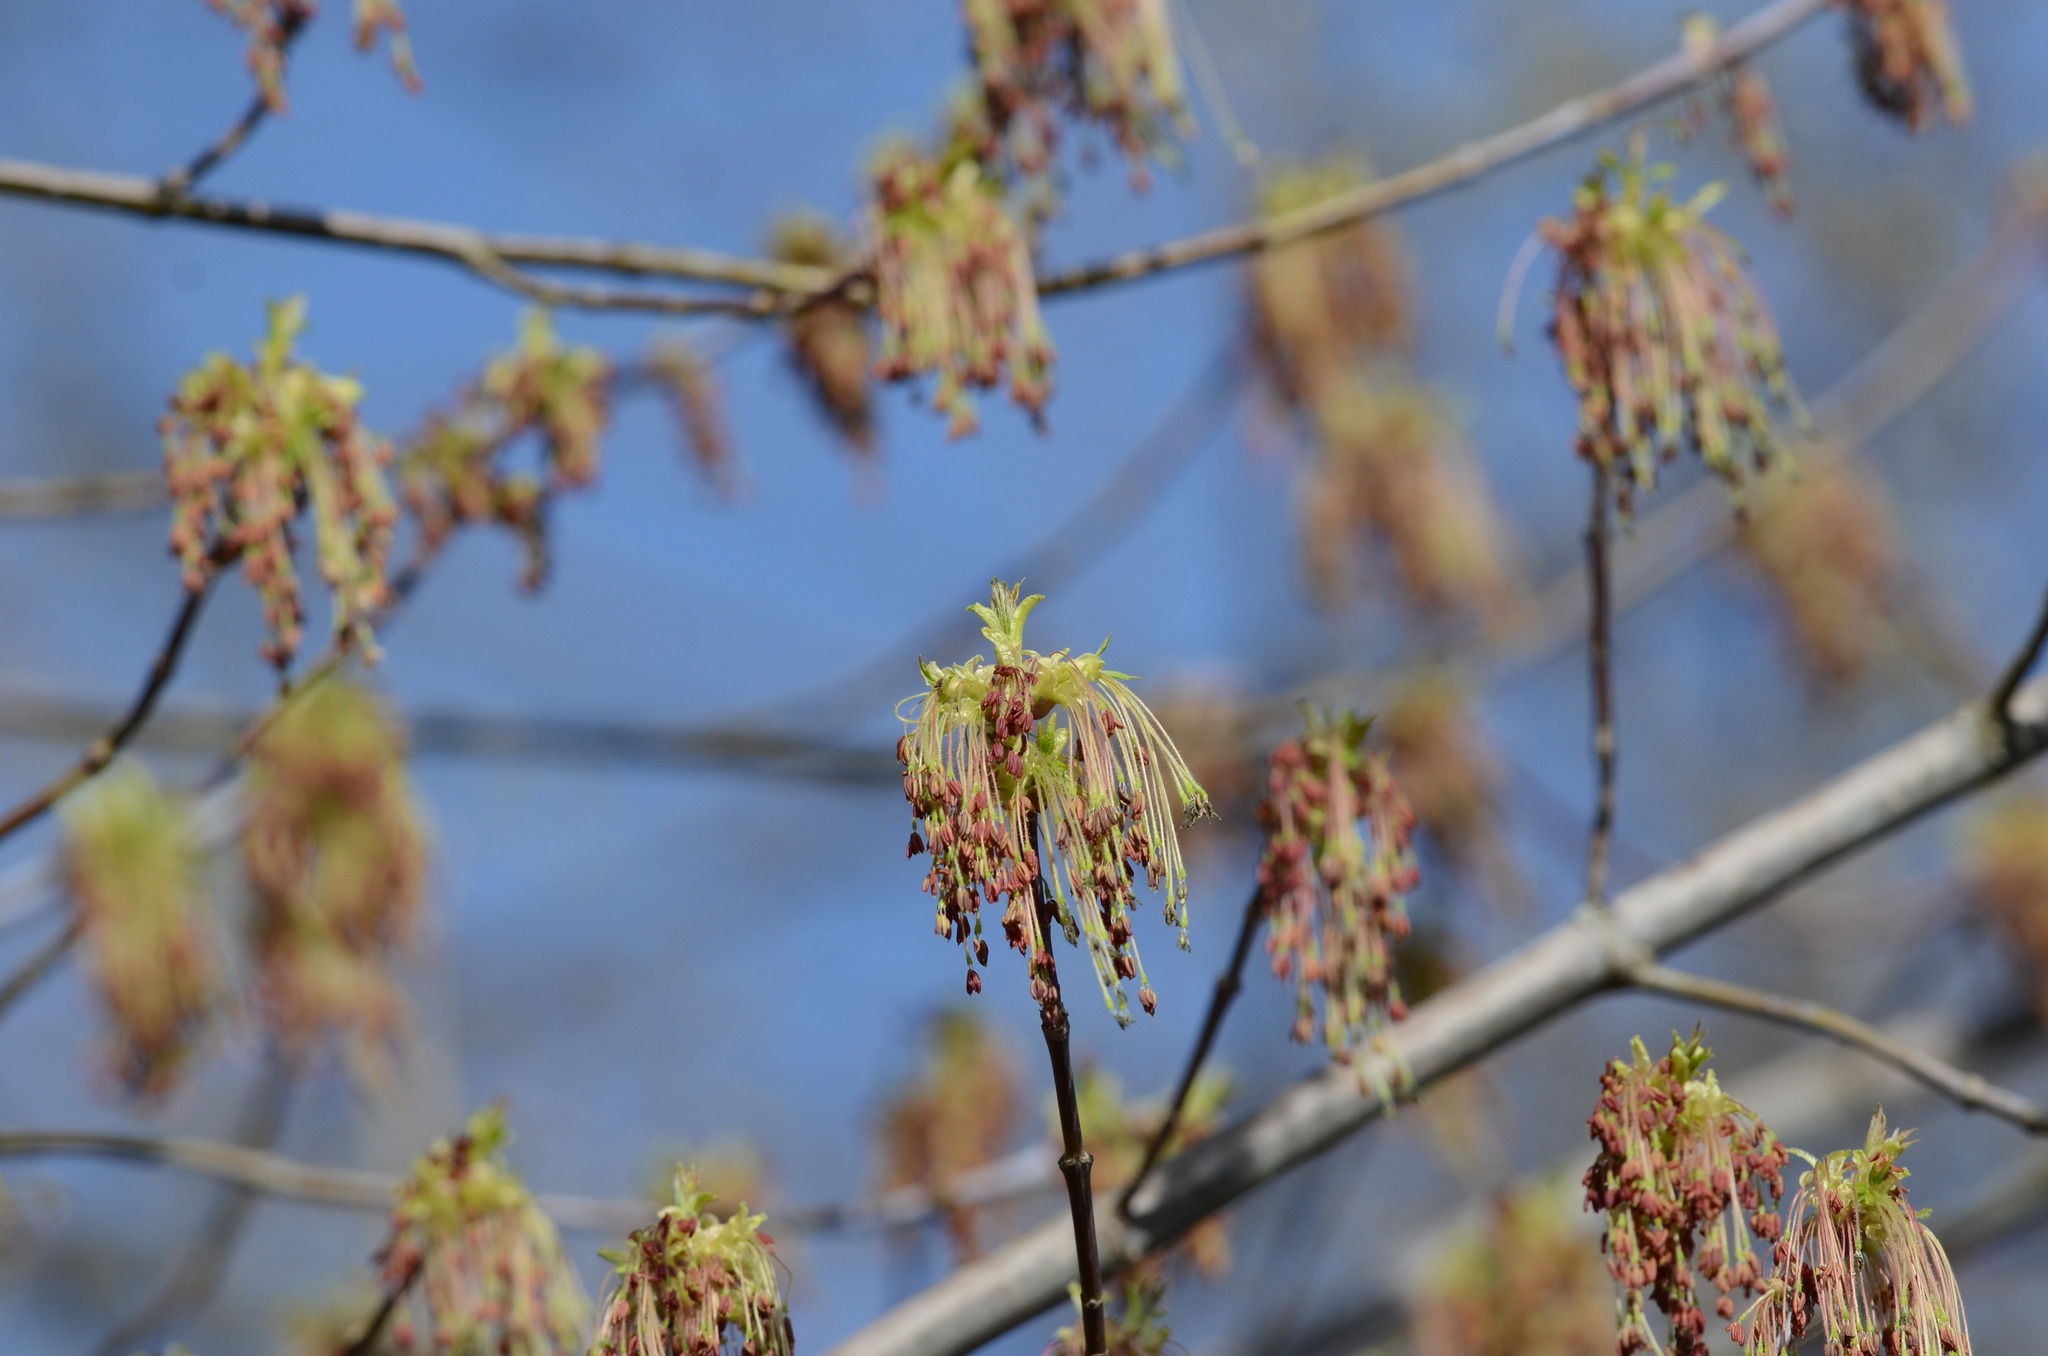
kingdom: Plantae
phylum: Tracheophyta
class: Magnoliopsida
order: Sapindales
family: Sapindaceae
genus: Acer
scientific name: Acer negundo
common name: Ashleaf maple
